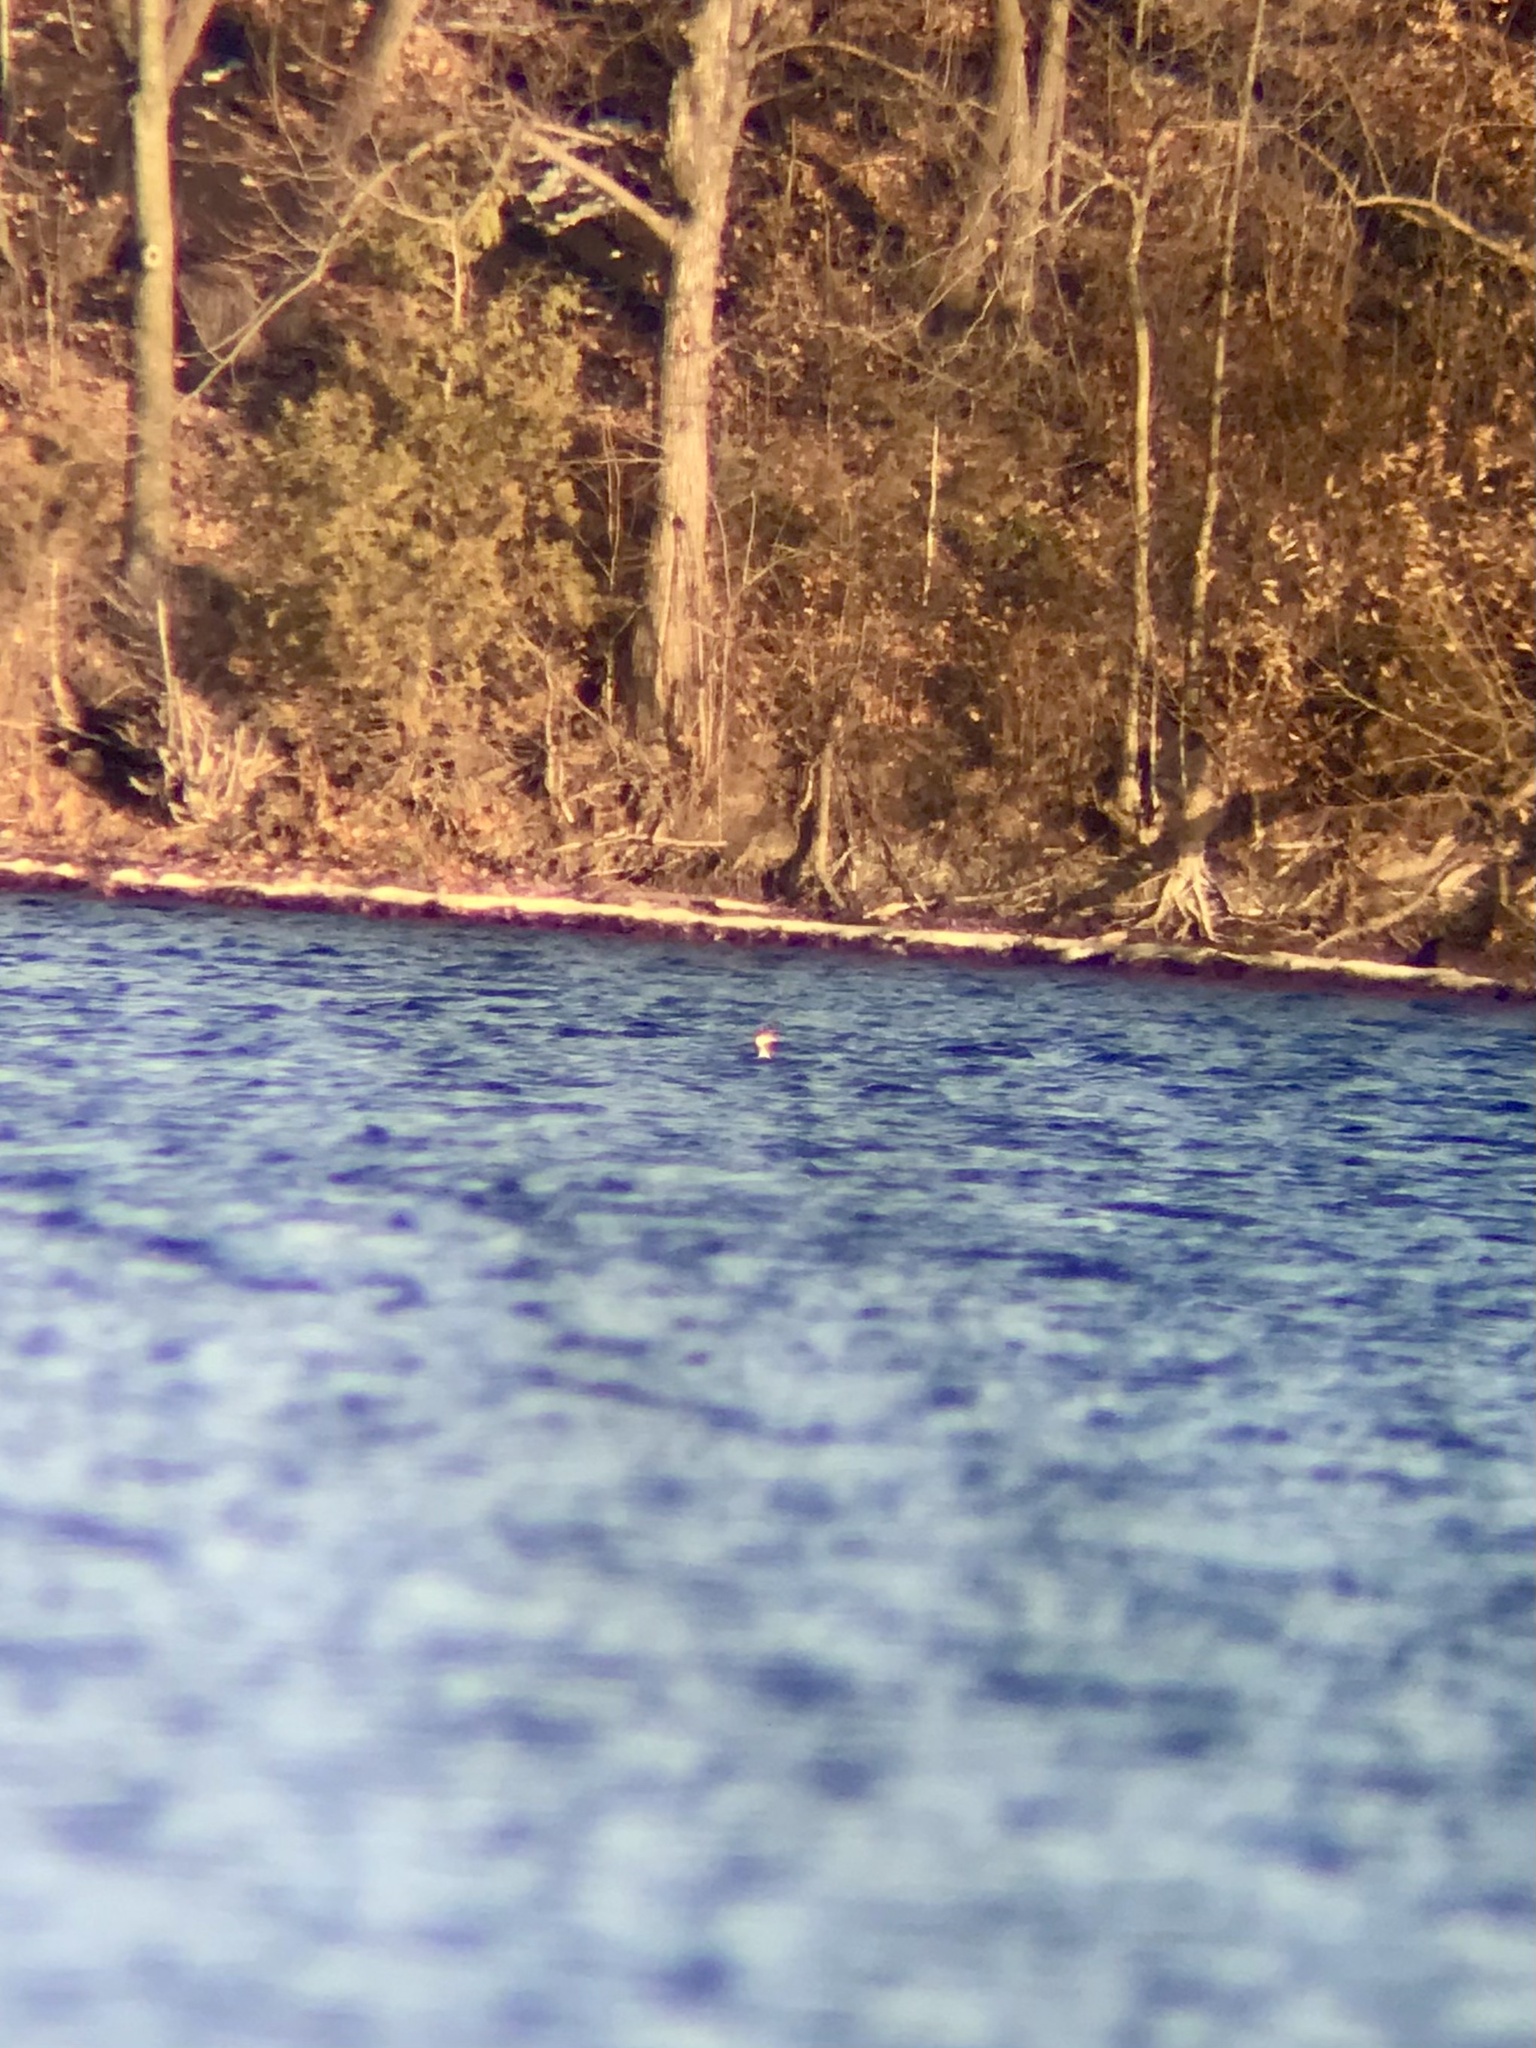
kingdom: Animalia
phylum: Chordata
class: Aves
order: Podicipediformes
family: Podicipedidae
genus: Podiceps
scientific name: Podiceps auritus
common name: Horned grebe
